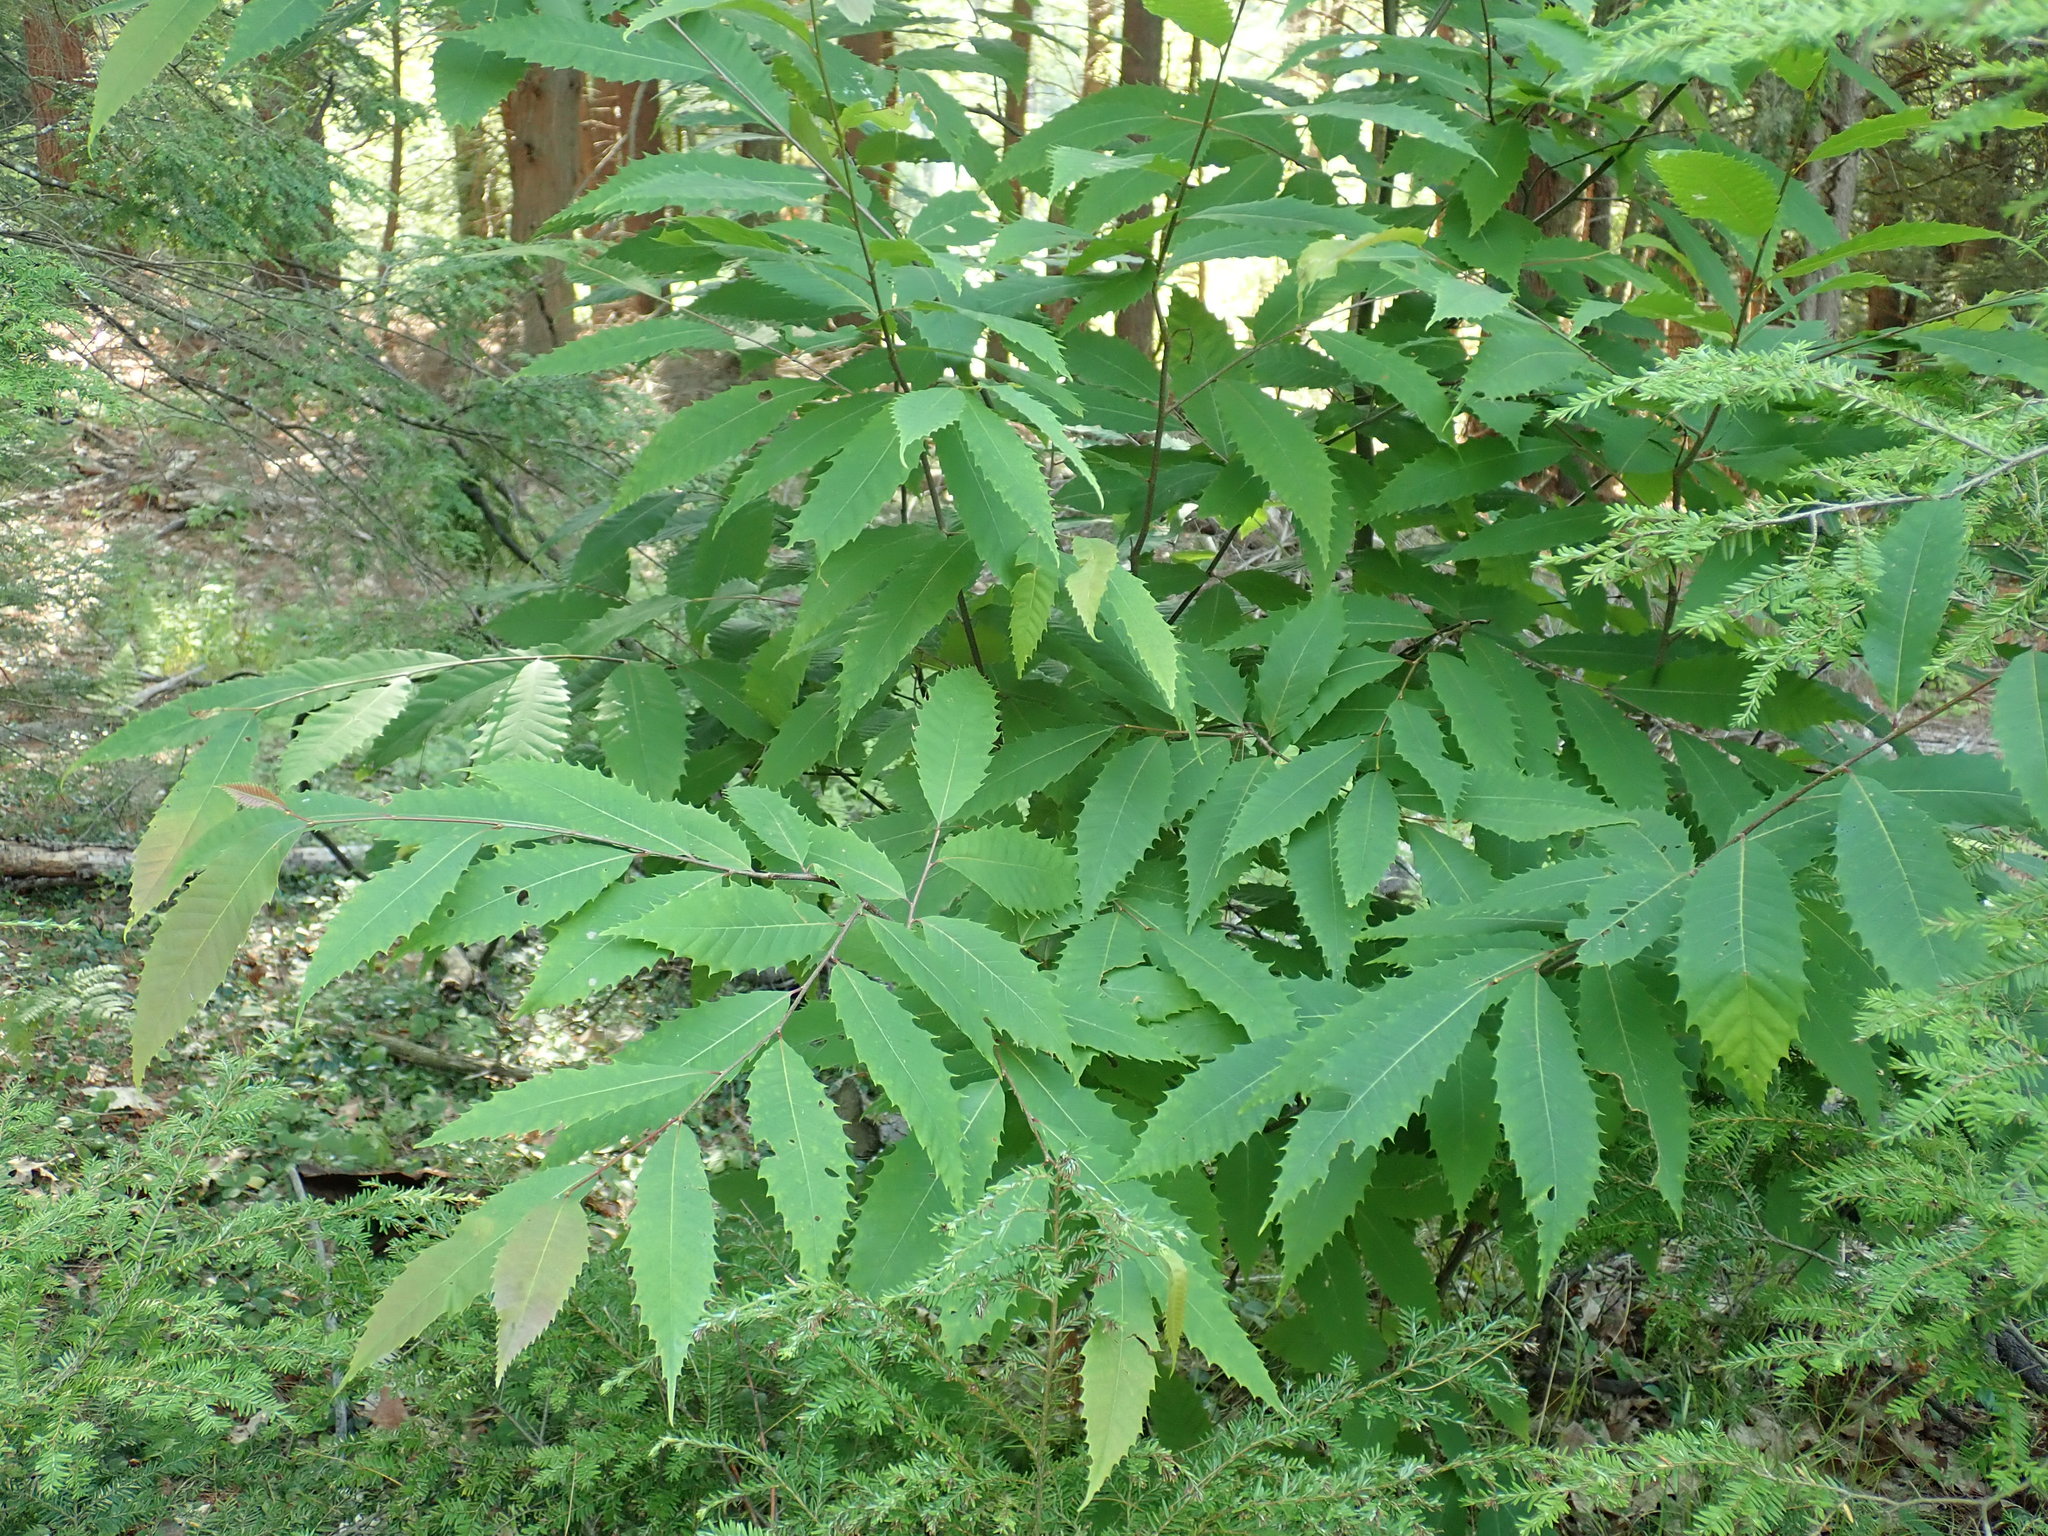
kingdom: Plantae
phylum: Tracheophyta
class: Magnoliopsida
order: Fagales
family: Fagaceae
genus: Castanea
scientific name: Castanea dentata
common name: American chestnut
